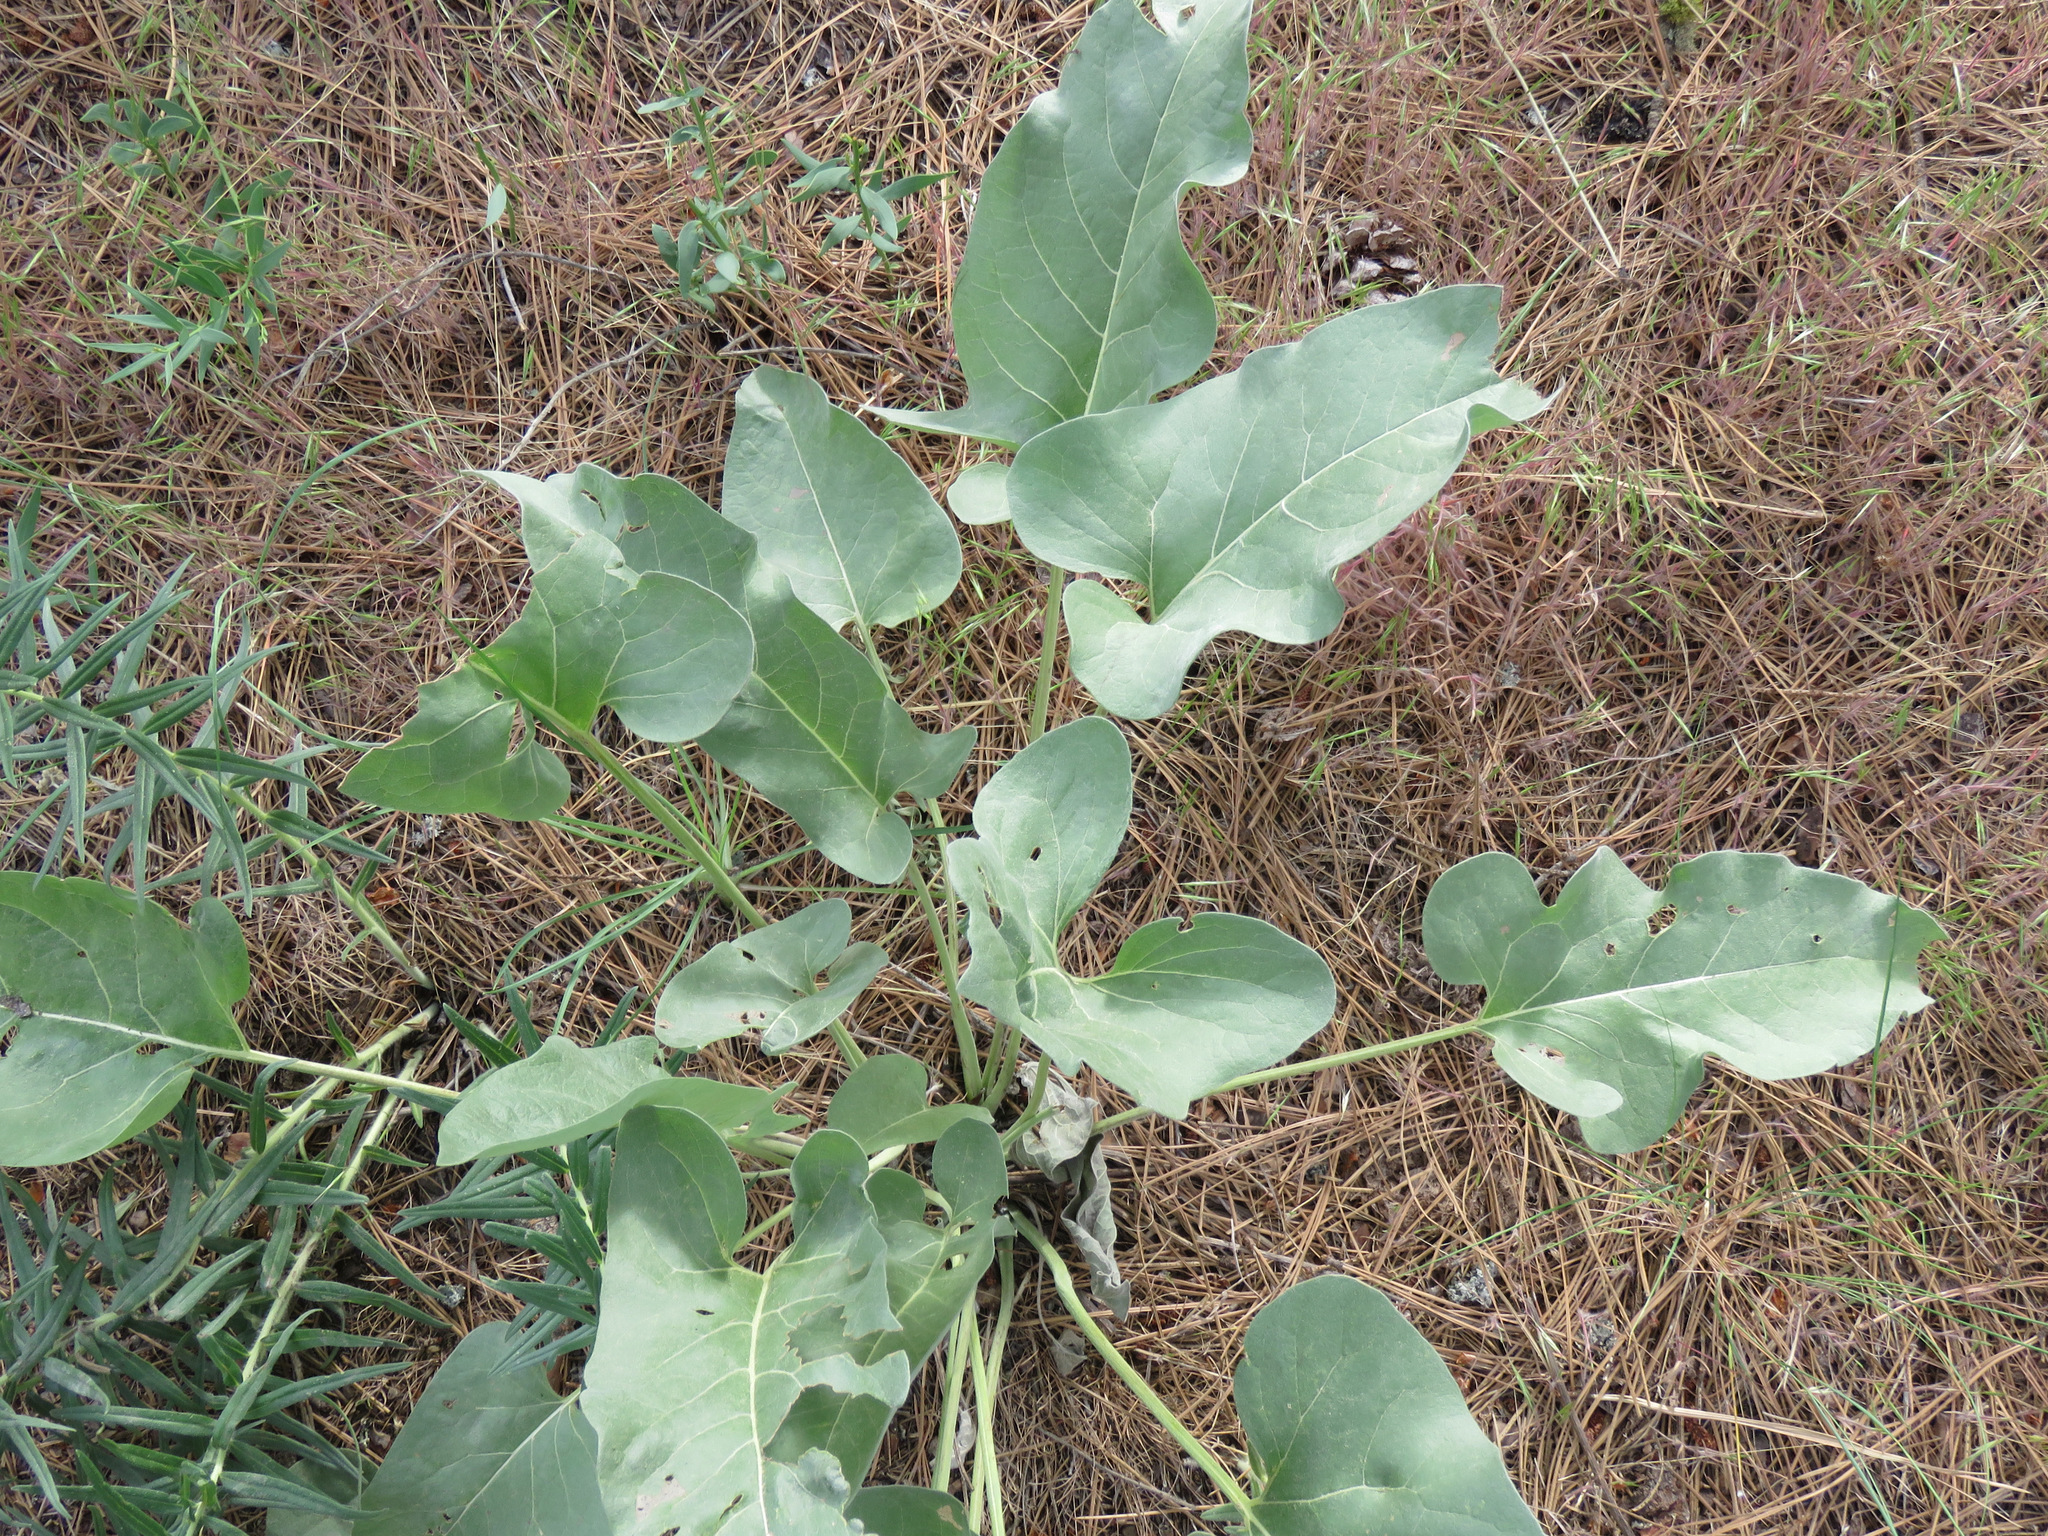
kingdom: Plantae
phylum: Tracheophyta
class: Magnoliopsida
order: Asterales
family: Asteraceae
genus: Wyethia
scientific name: Wyethia sagittata
